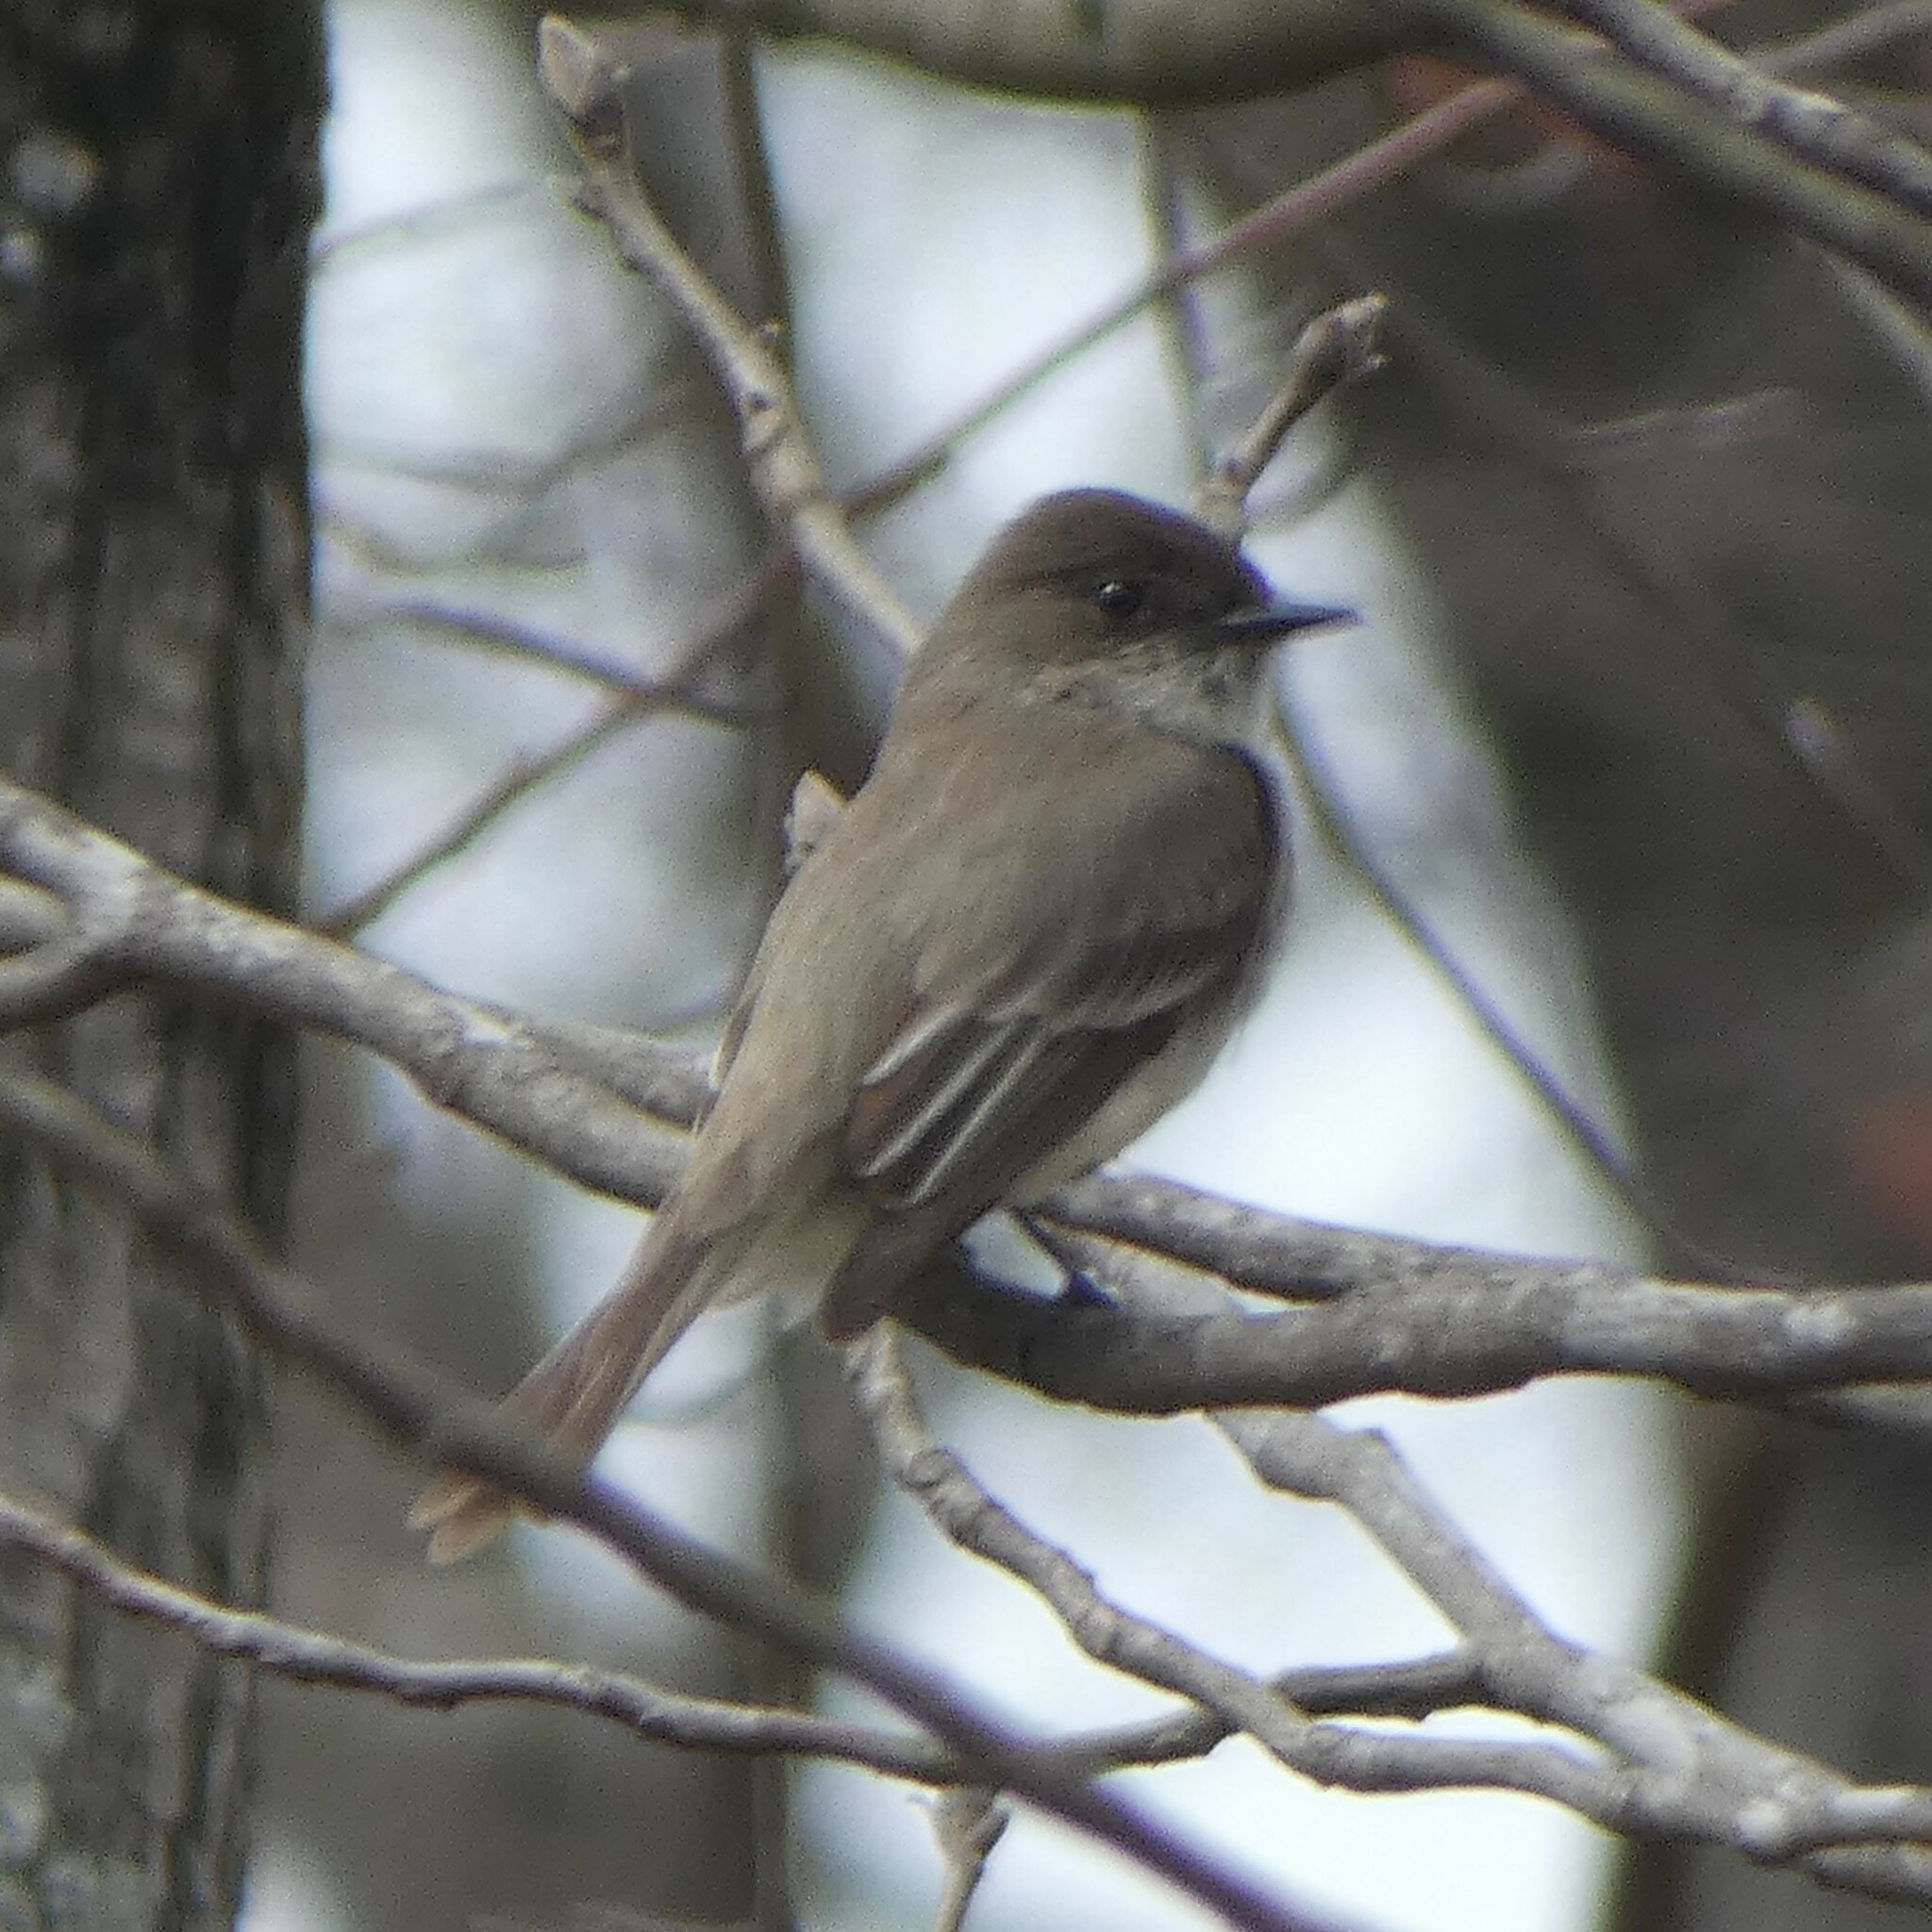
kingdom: Animalia
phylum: Chordata
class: Aves
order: Passeriformes
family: Tyrannidae
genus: Sayornis
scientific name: Sayornis phoebe
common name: Eastern phoebe
